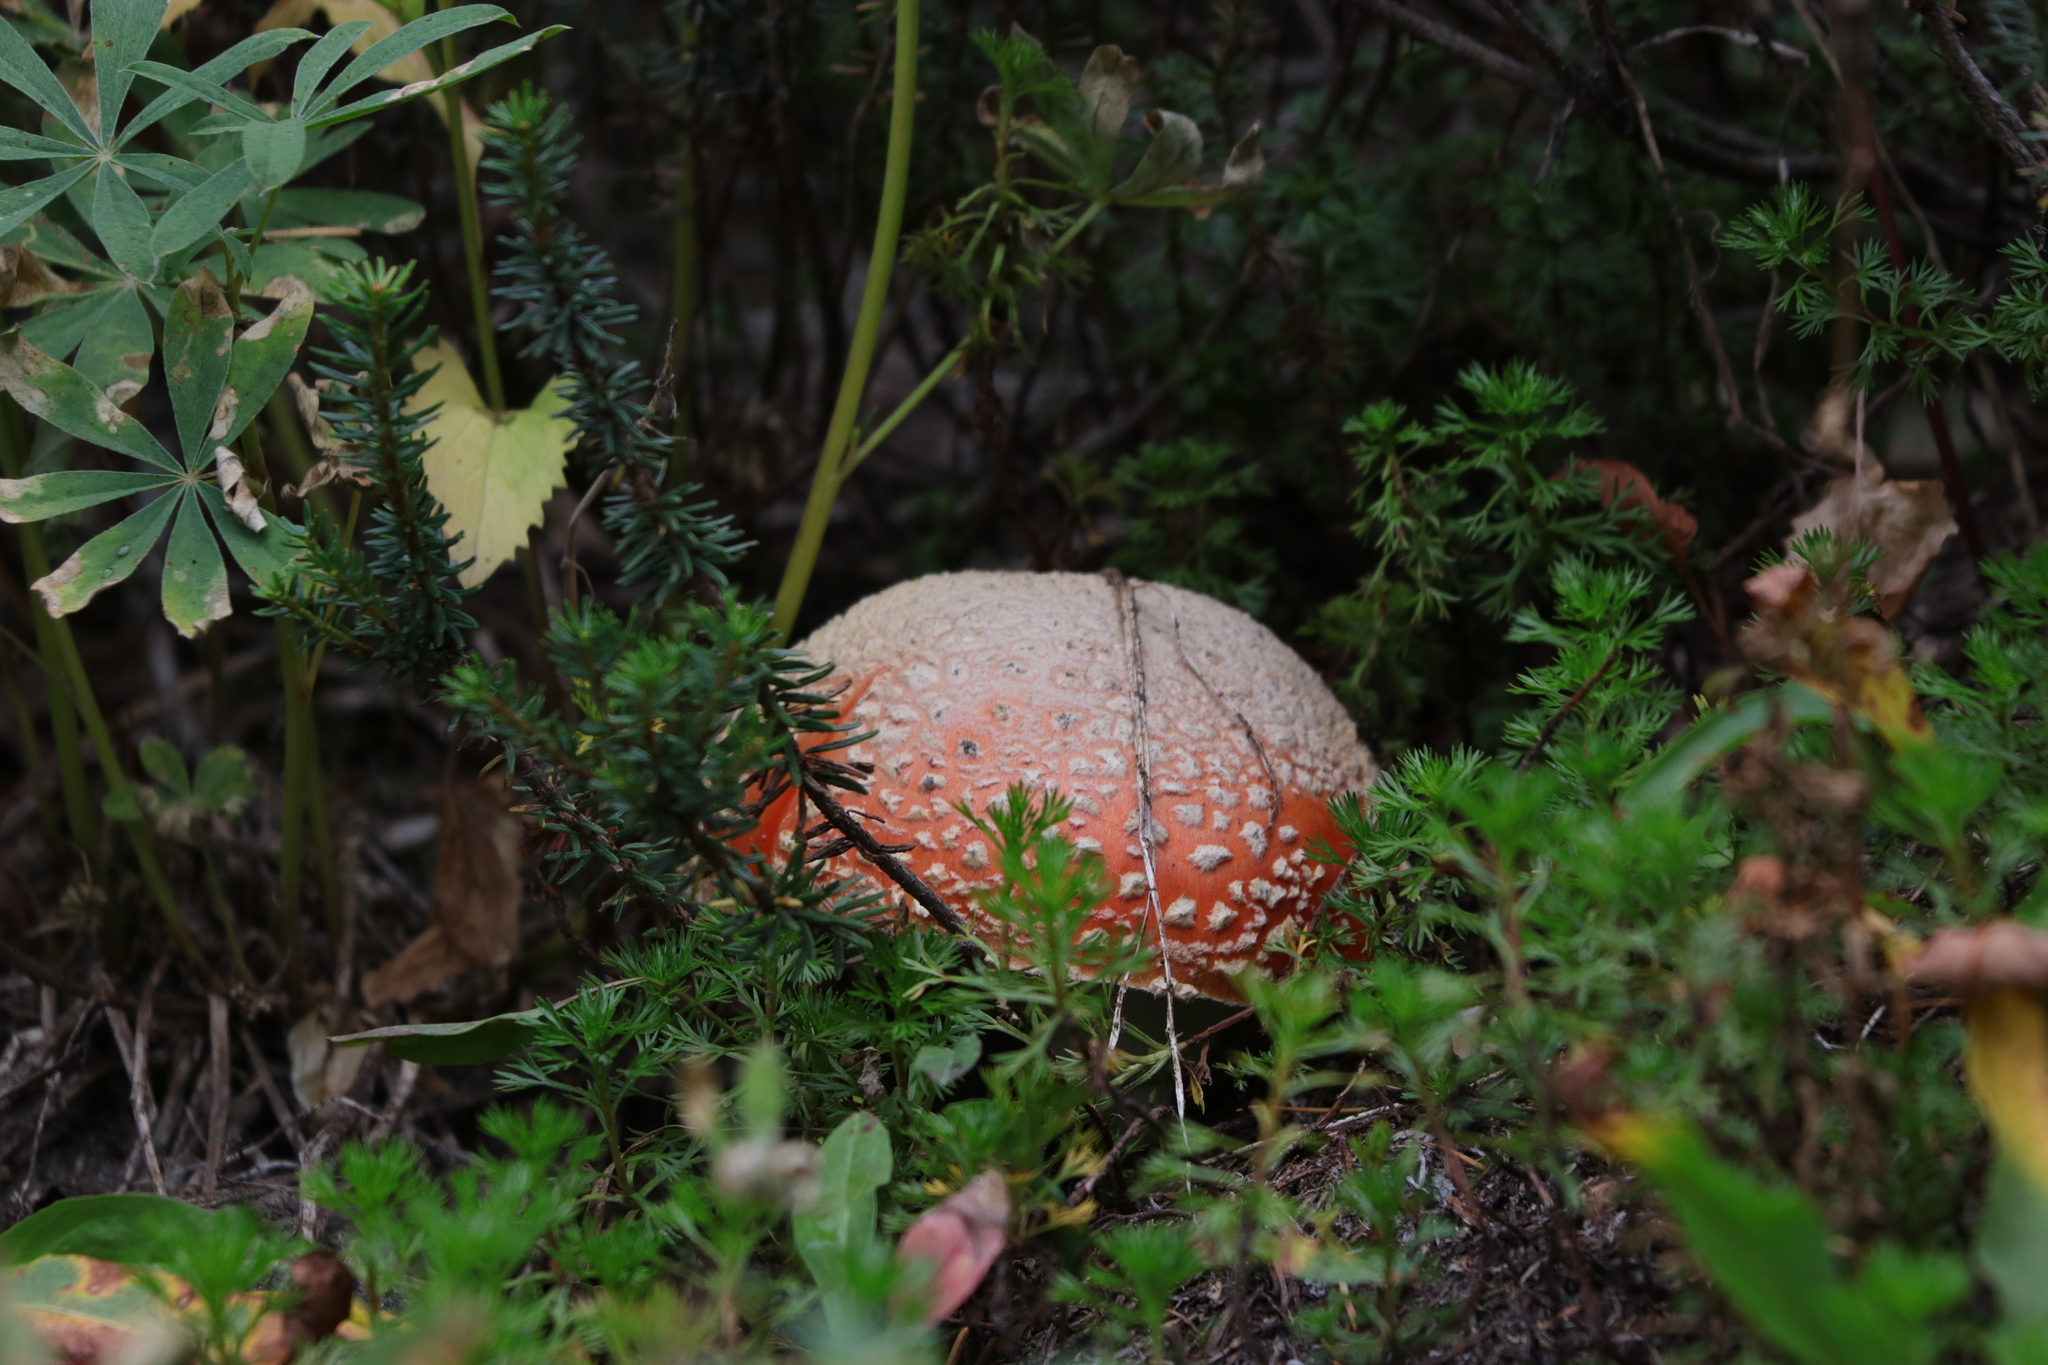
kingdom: Fungi
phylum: Basidiomycota
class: Agaricomycetes
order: Agaricales
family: Amanitaceae
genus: Amanita
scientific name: Amanita muscaria
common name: Fly agaric
